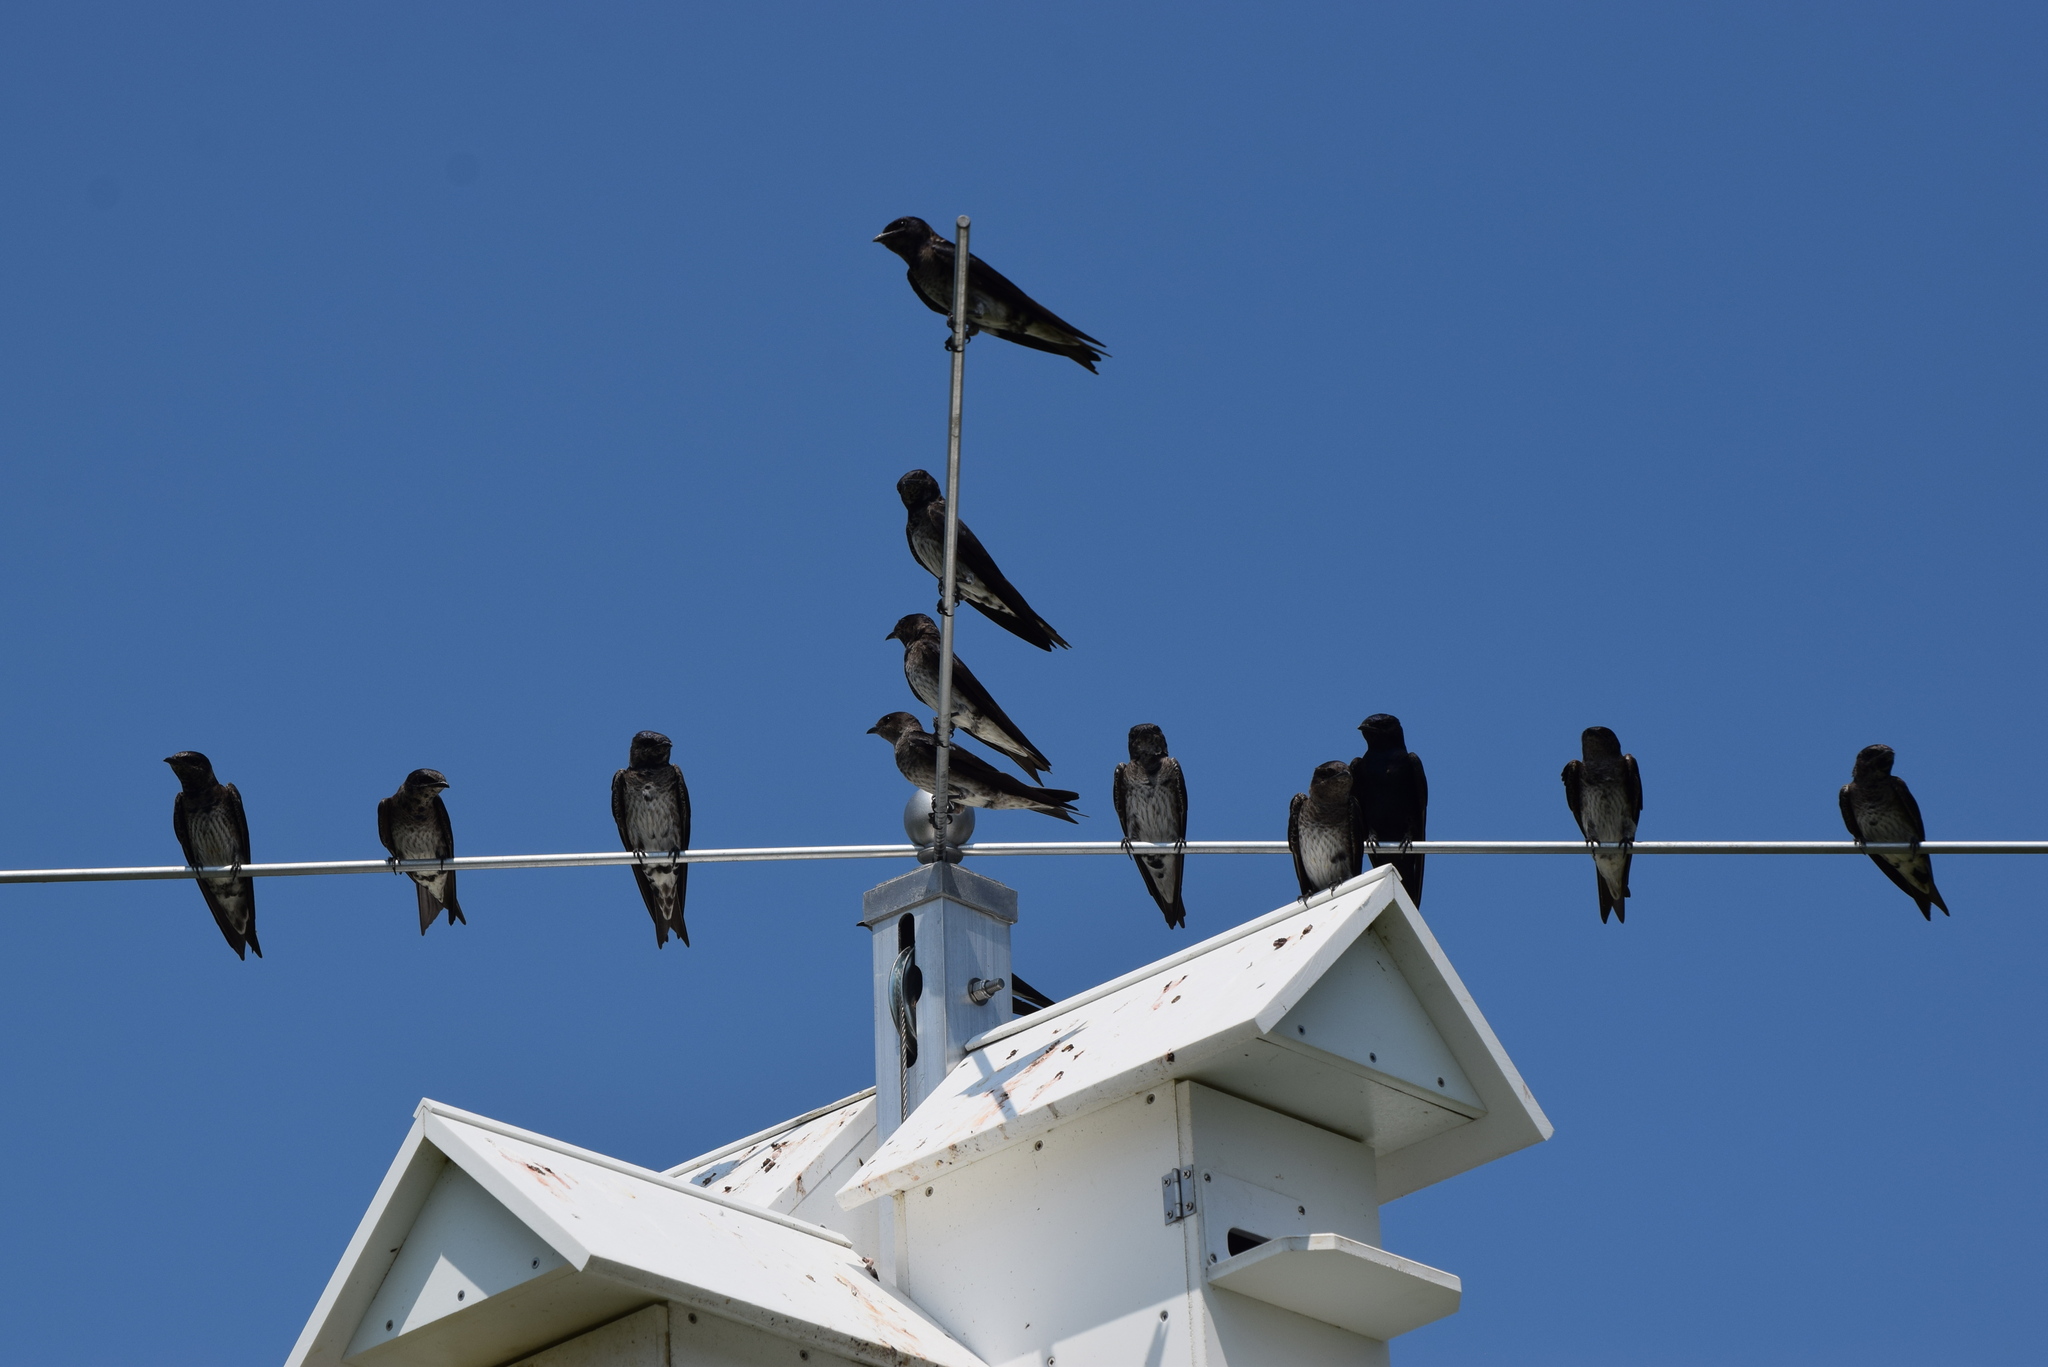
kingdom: Animalia
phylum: Chordata
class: Aves
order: Passeriformes
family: Hirundinidae
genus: Progne
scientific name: Progne subis
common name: Purple martin
